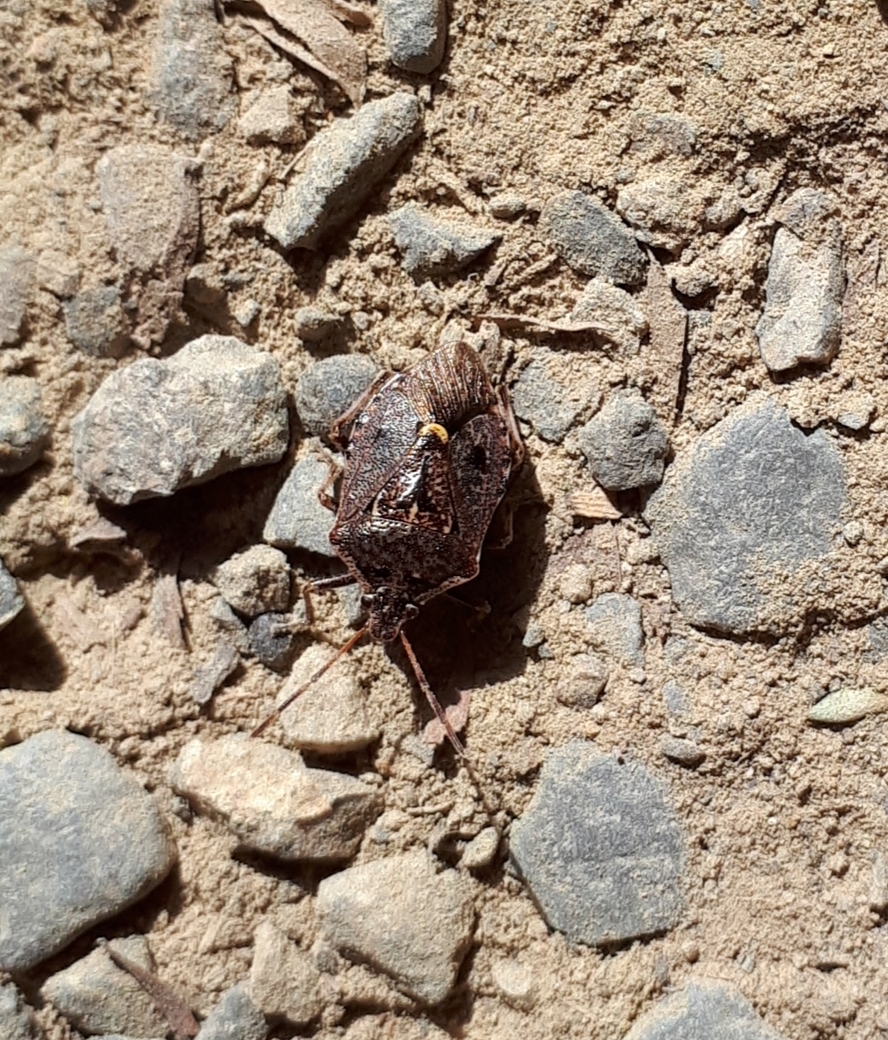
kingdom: Animalia
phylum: Arthropoda
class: Insecta
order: Hemiptera
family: Pentatomidae
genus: Cermatulus
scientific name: Cermatulus nasalis
